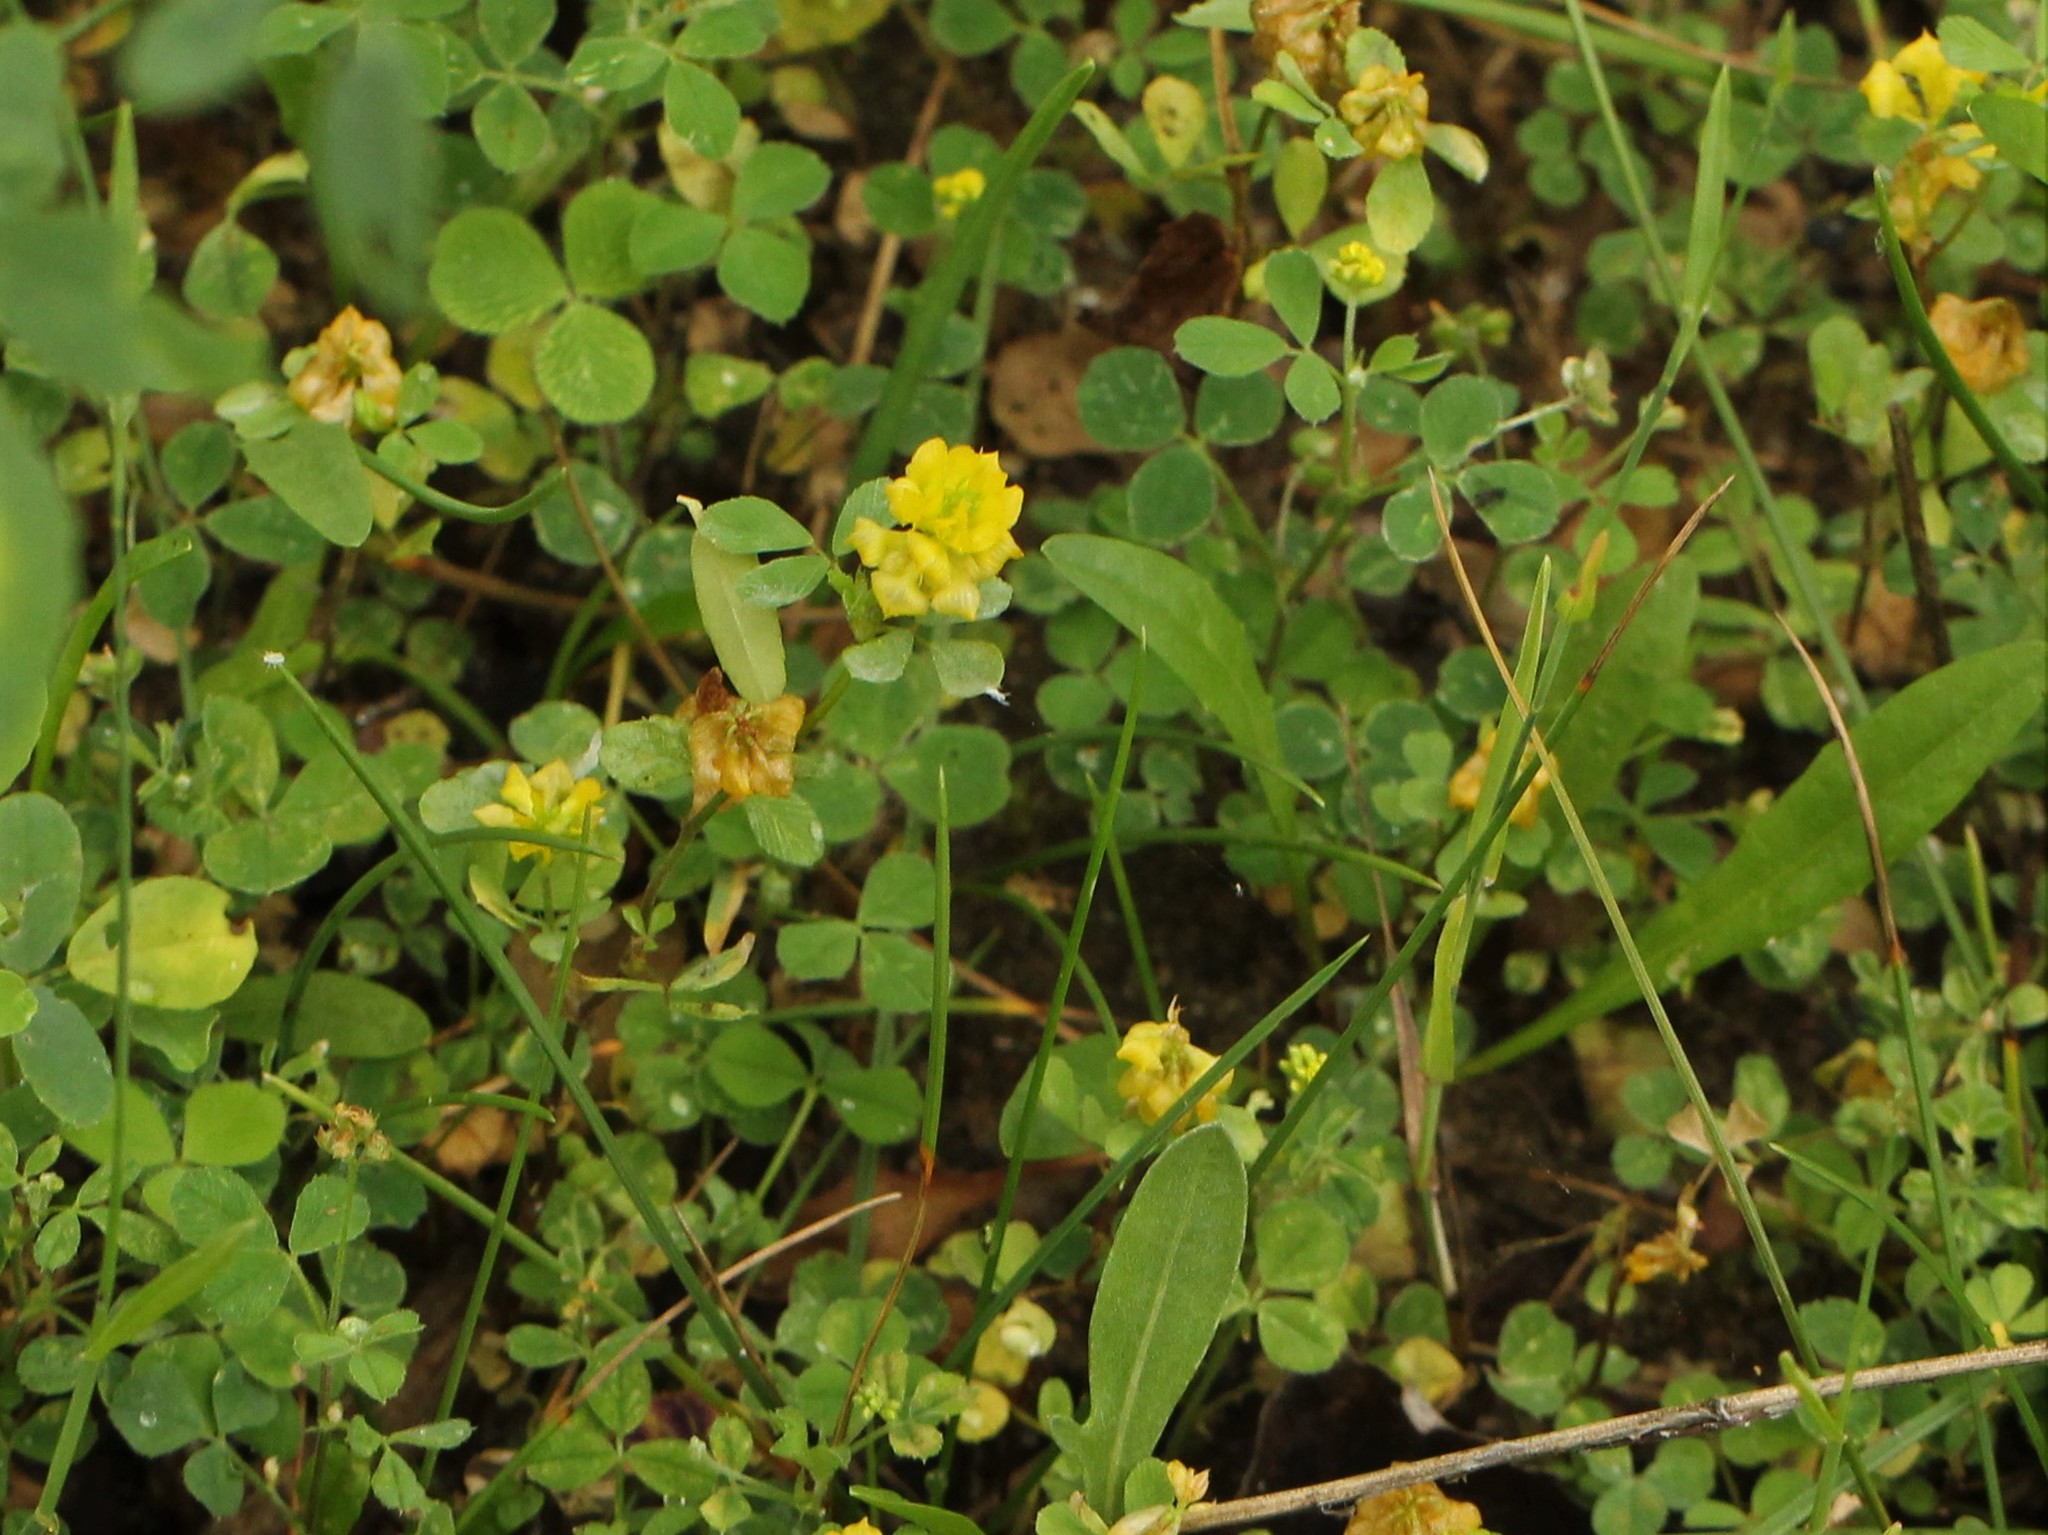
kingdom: Plantae
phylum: Tracheophyta
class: Magnoliopsida
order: Fabales
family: Fabaceae
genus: Trifolium
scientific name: Trifolium campestre
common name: Field clover
